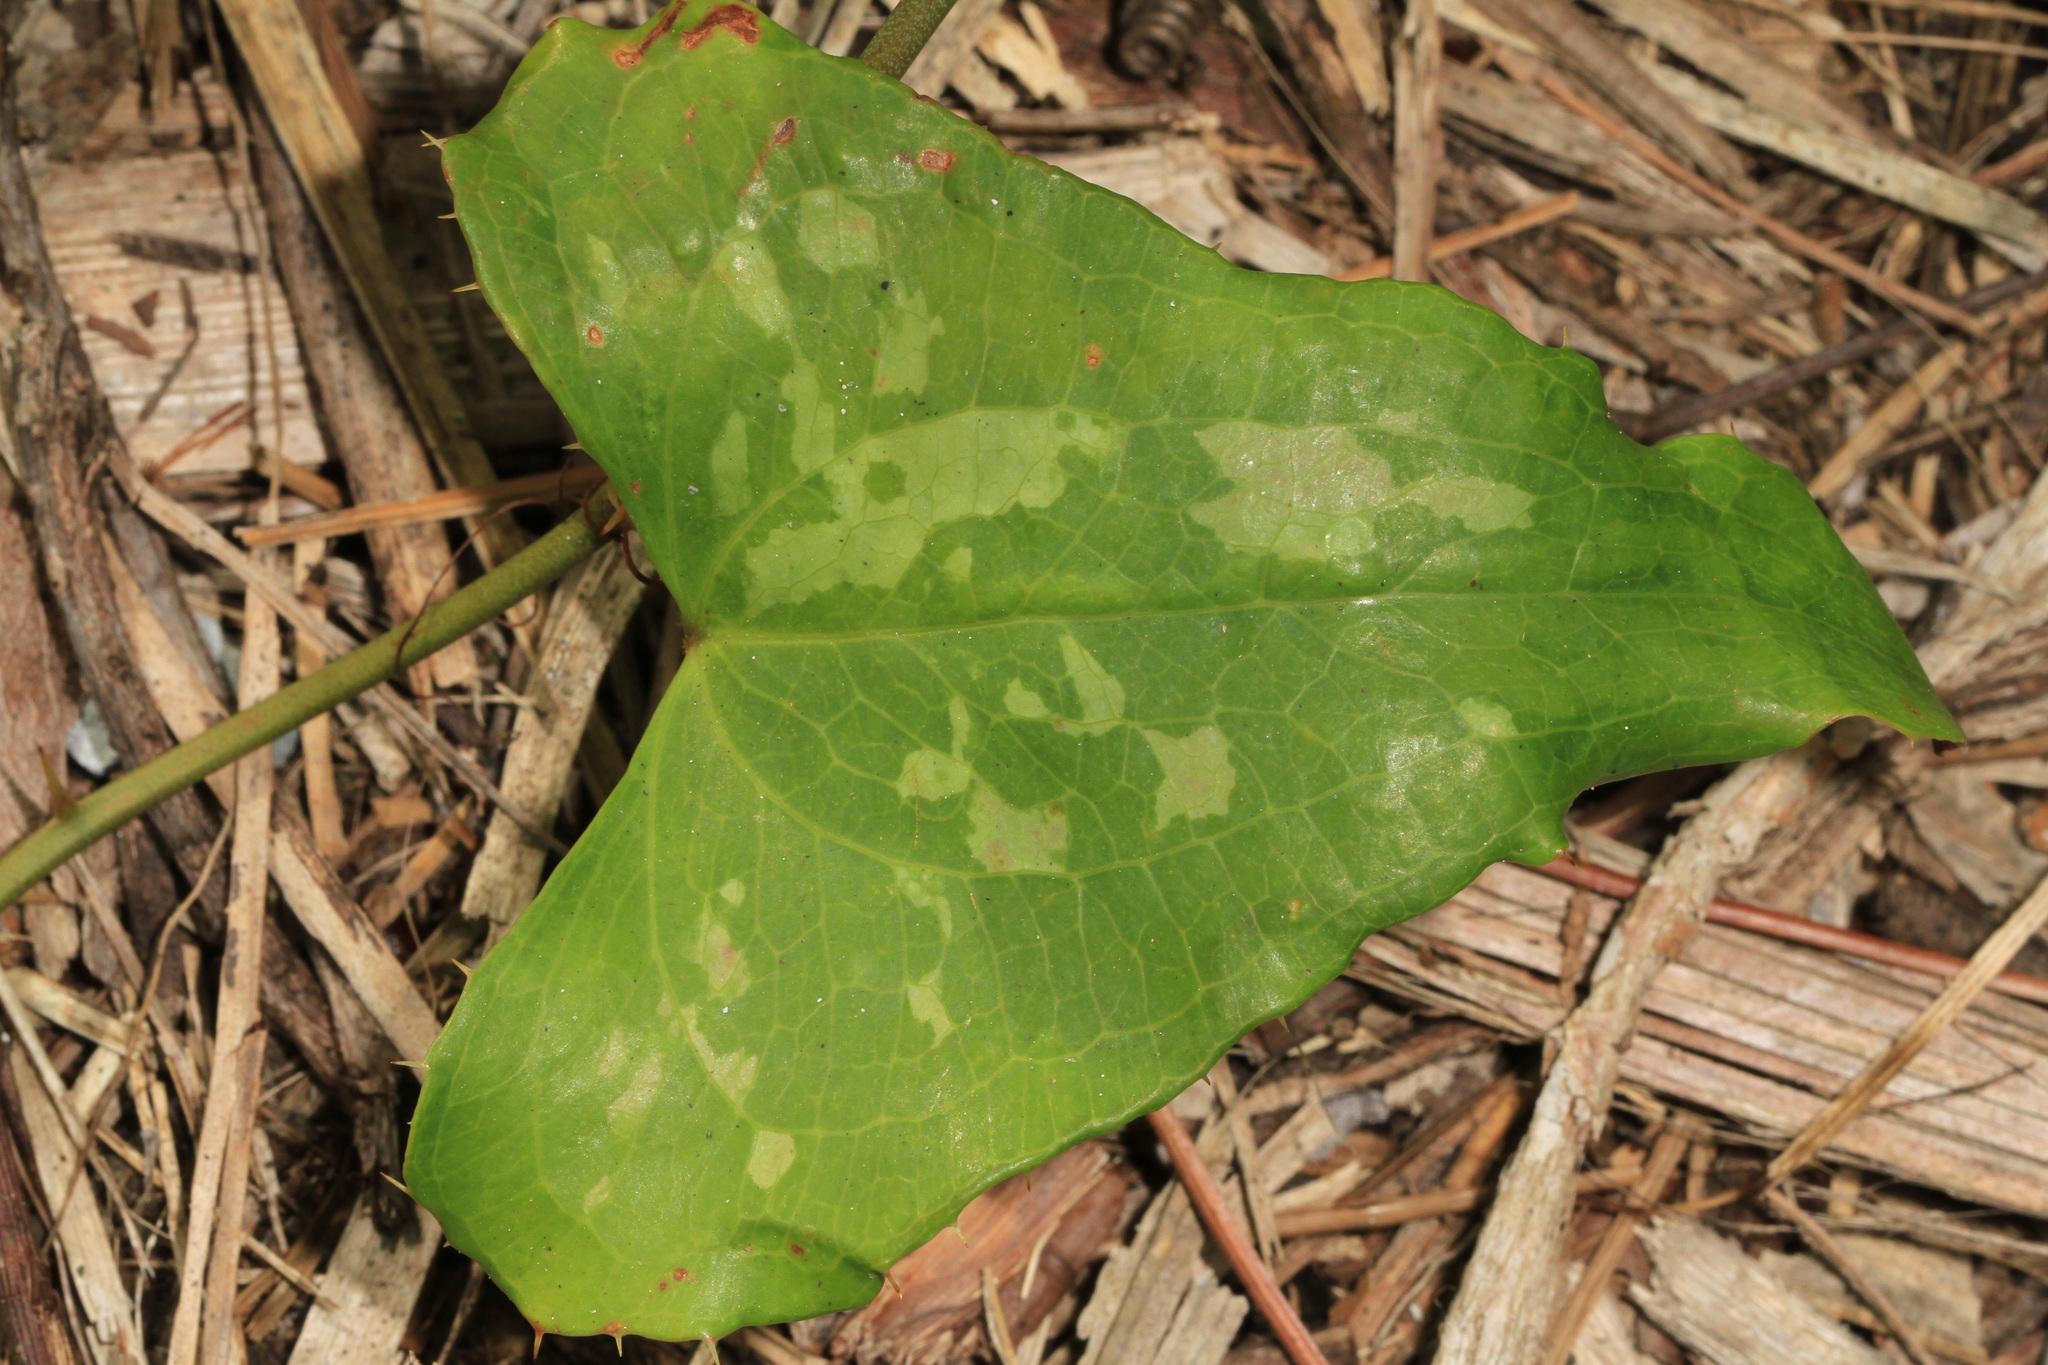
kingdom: Plantae
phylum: Tracheophyta
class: Liliopsida
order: Liliales
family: Smilacaceae
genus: Smilax
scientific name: Smilax bona-nox
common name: Catbrier
